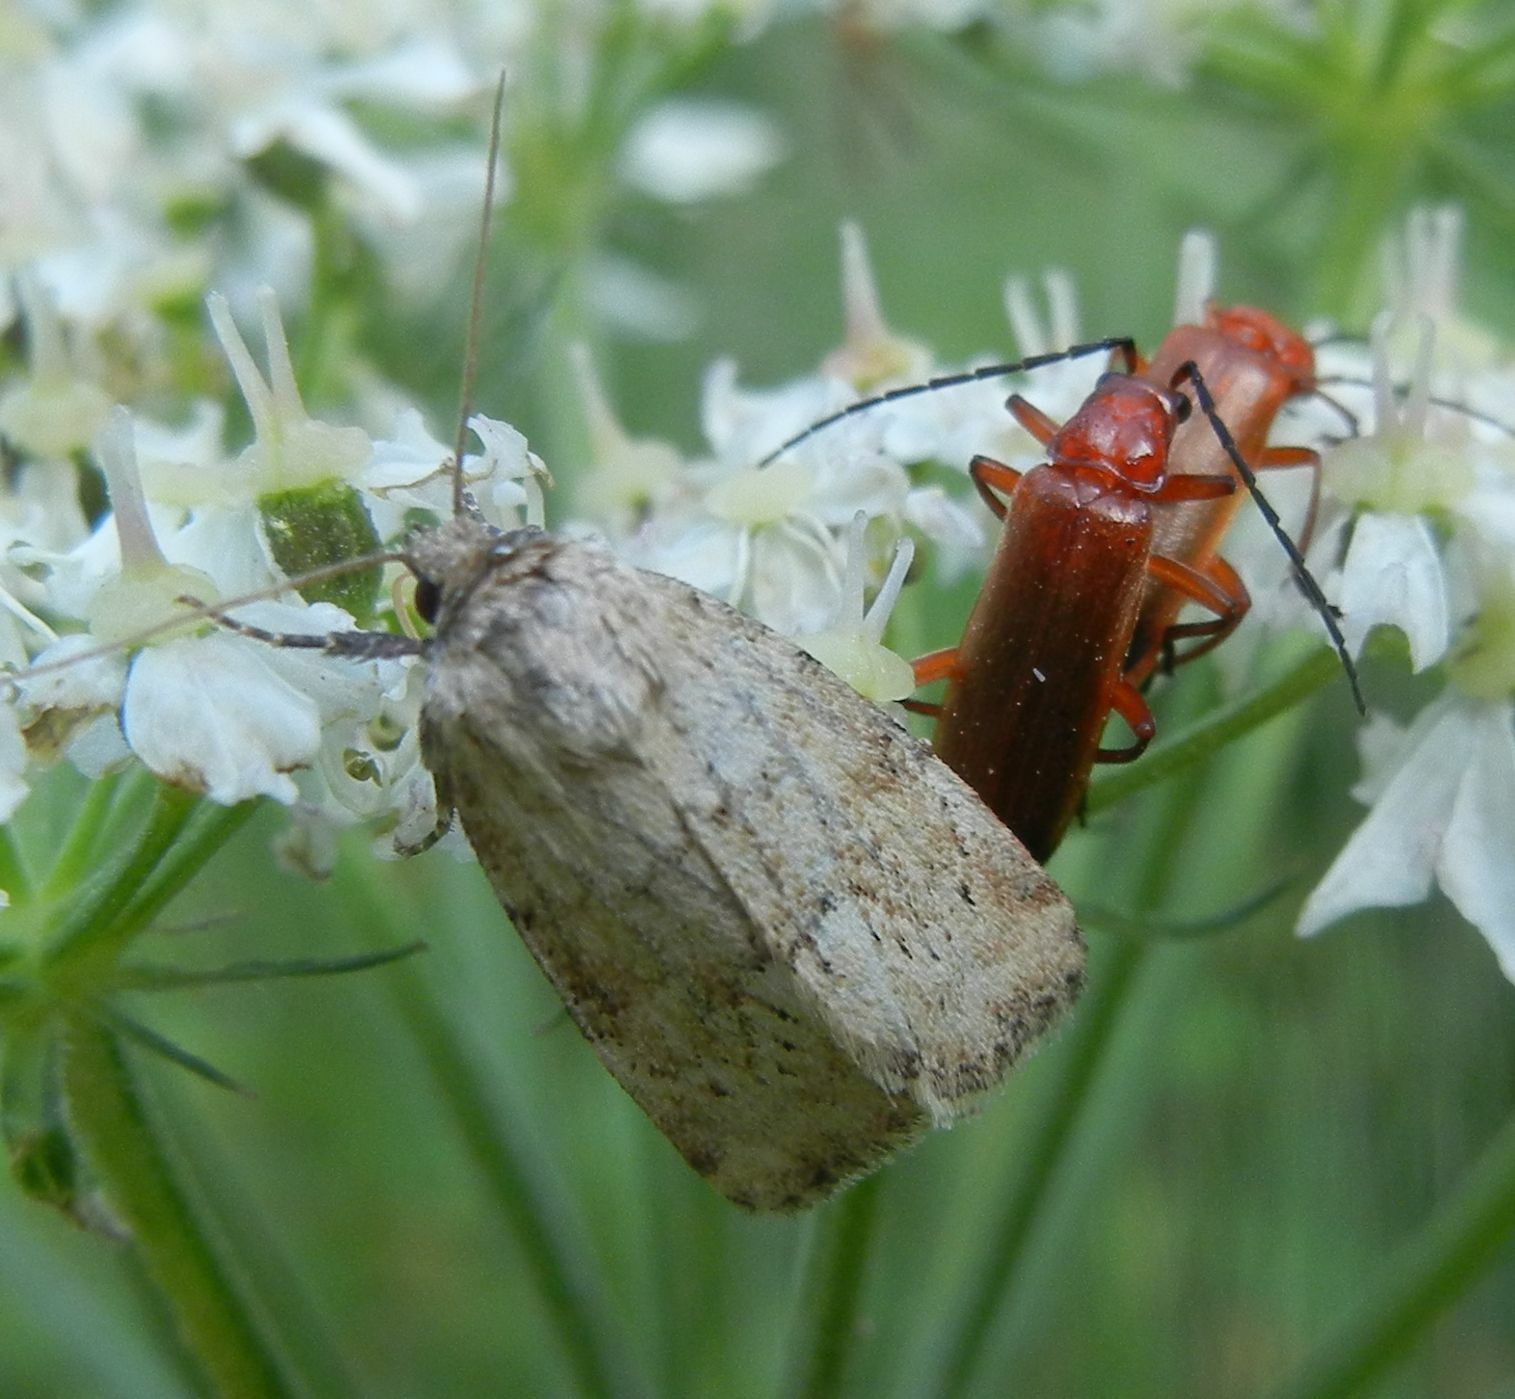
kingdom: Animalia
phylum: Arthropoda
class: Insecta
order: Lepidoptera
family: Noctuidae
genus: Photedes
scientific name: Photedes minima
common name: Small dotted buff
